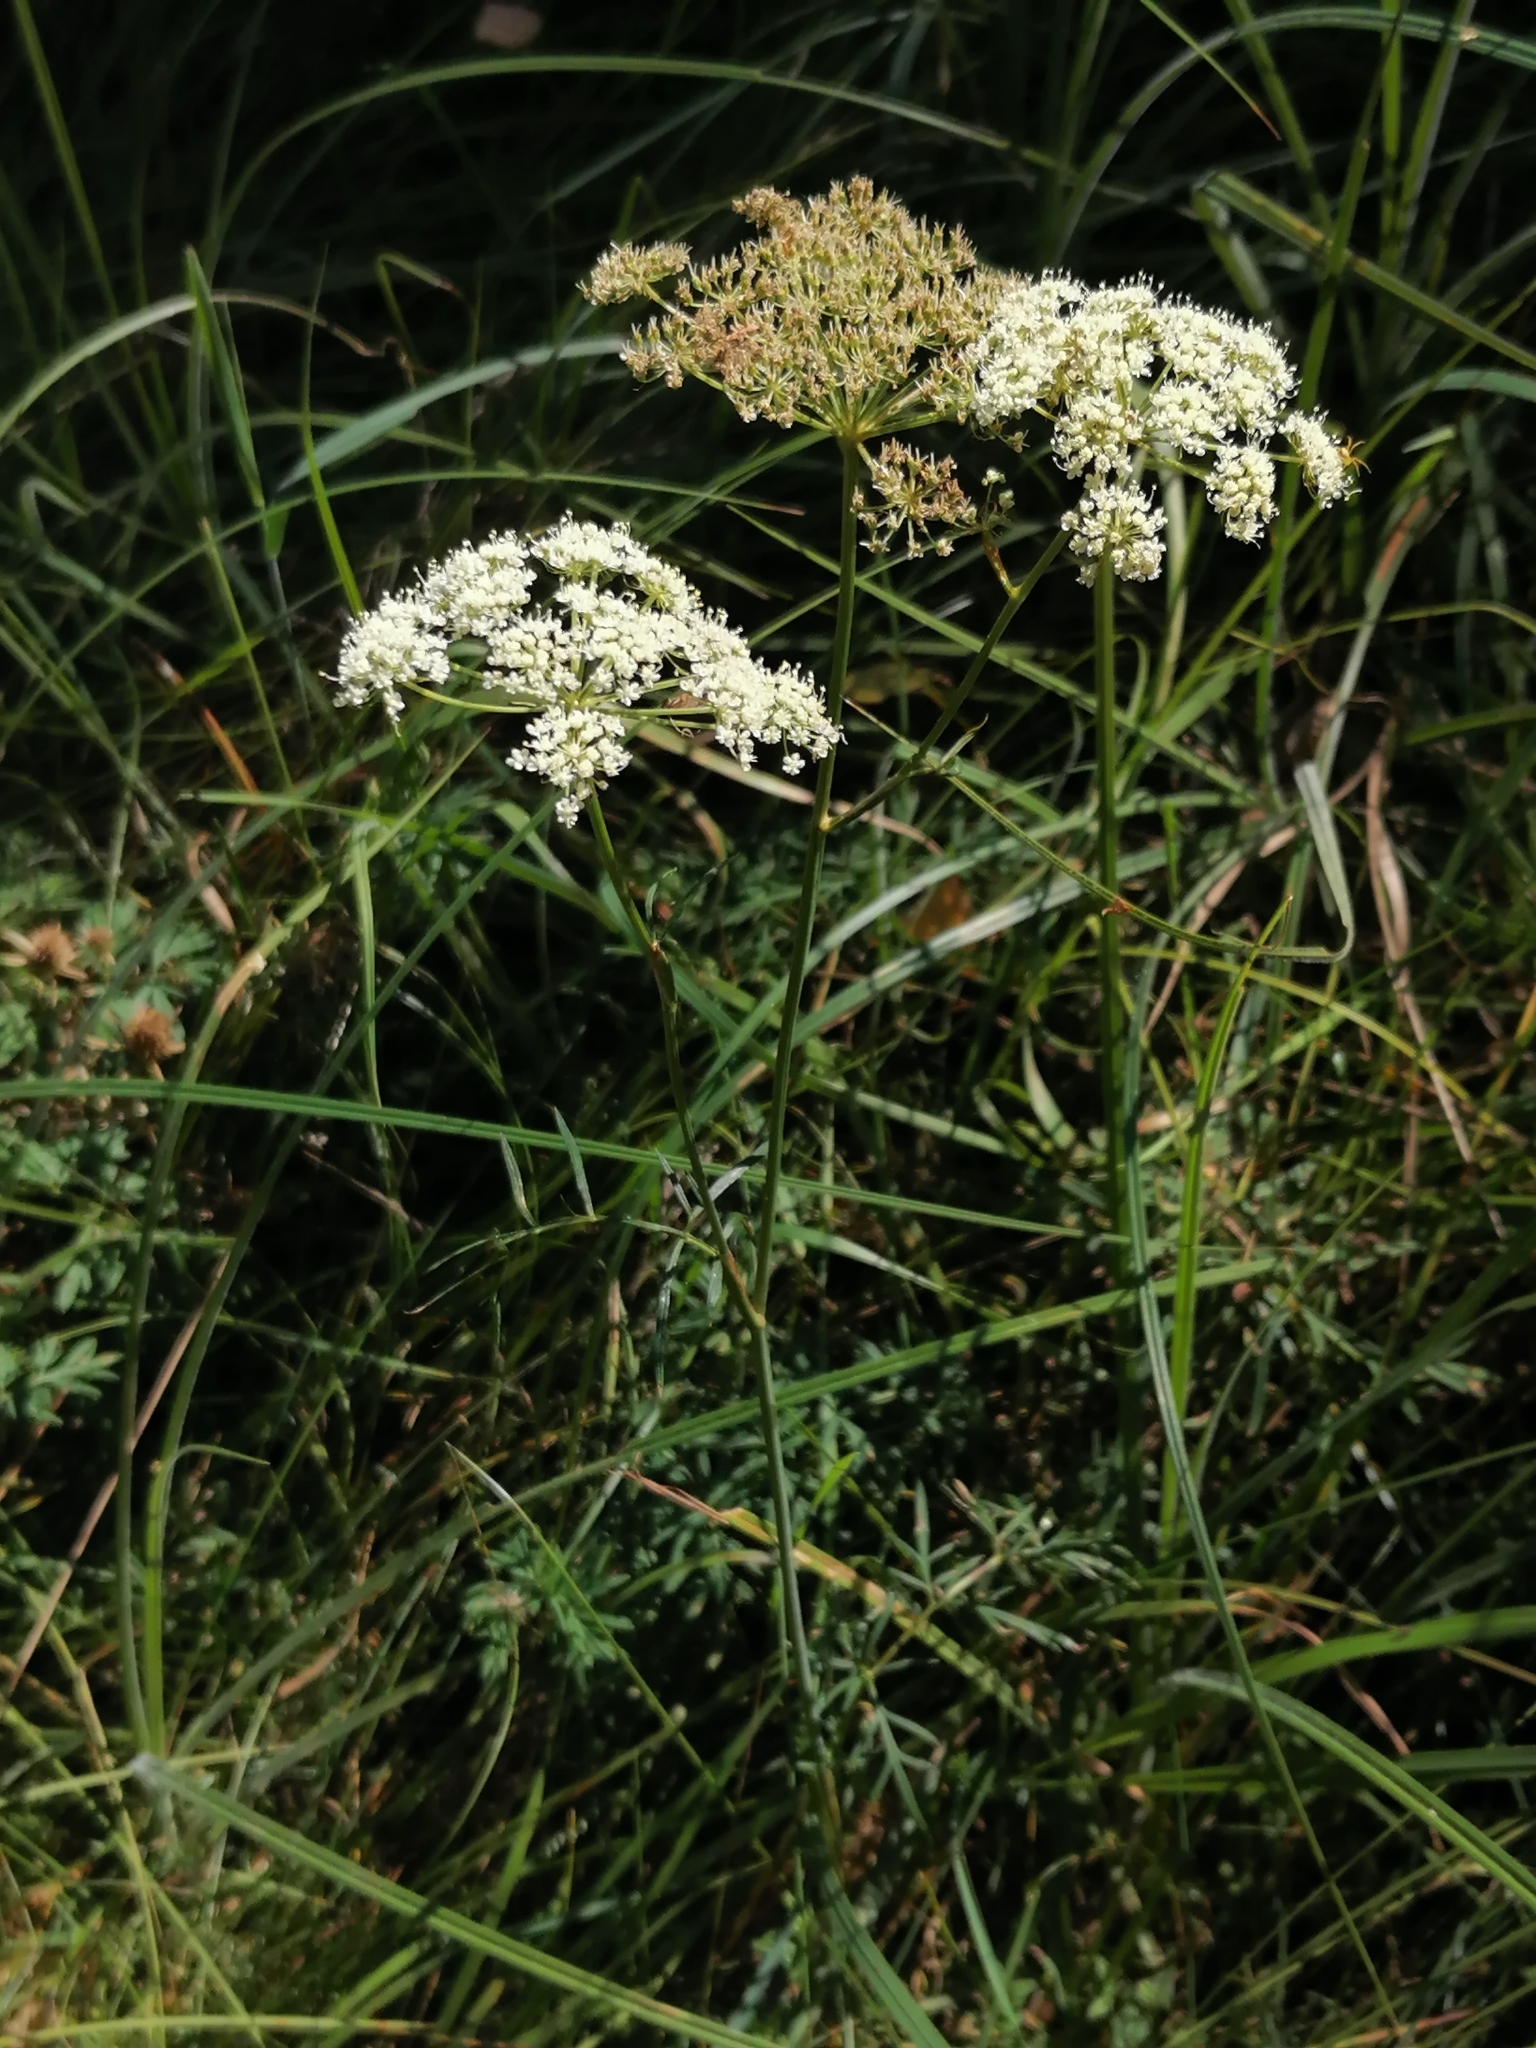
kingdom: Plantae
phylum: Tracheophyta
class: Magnoliopsida
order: Apiales
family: Apiaceae
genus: Kadenia
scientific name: Kadenia dubia
